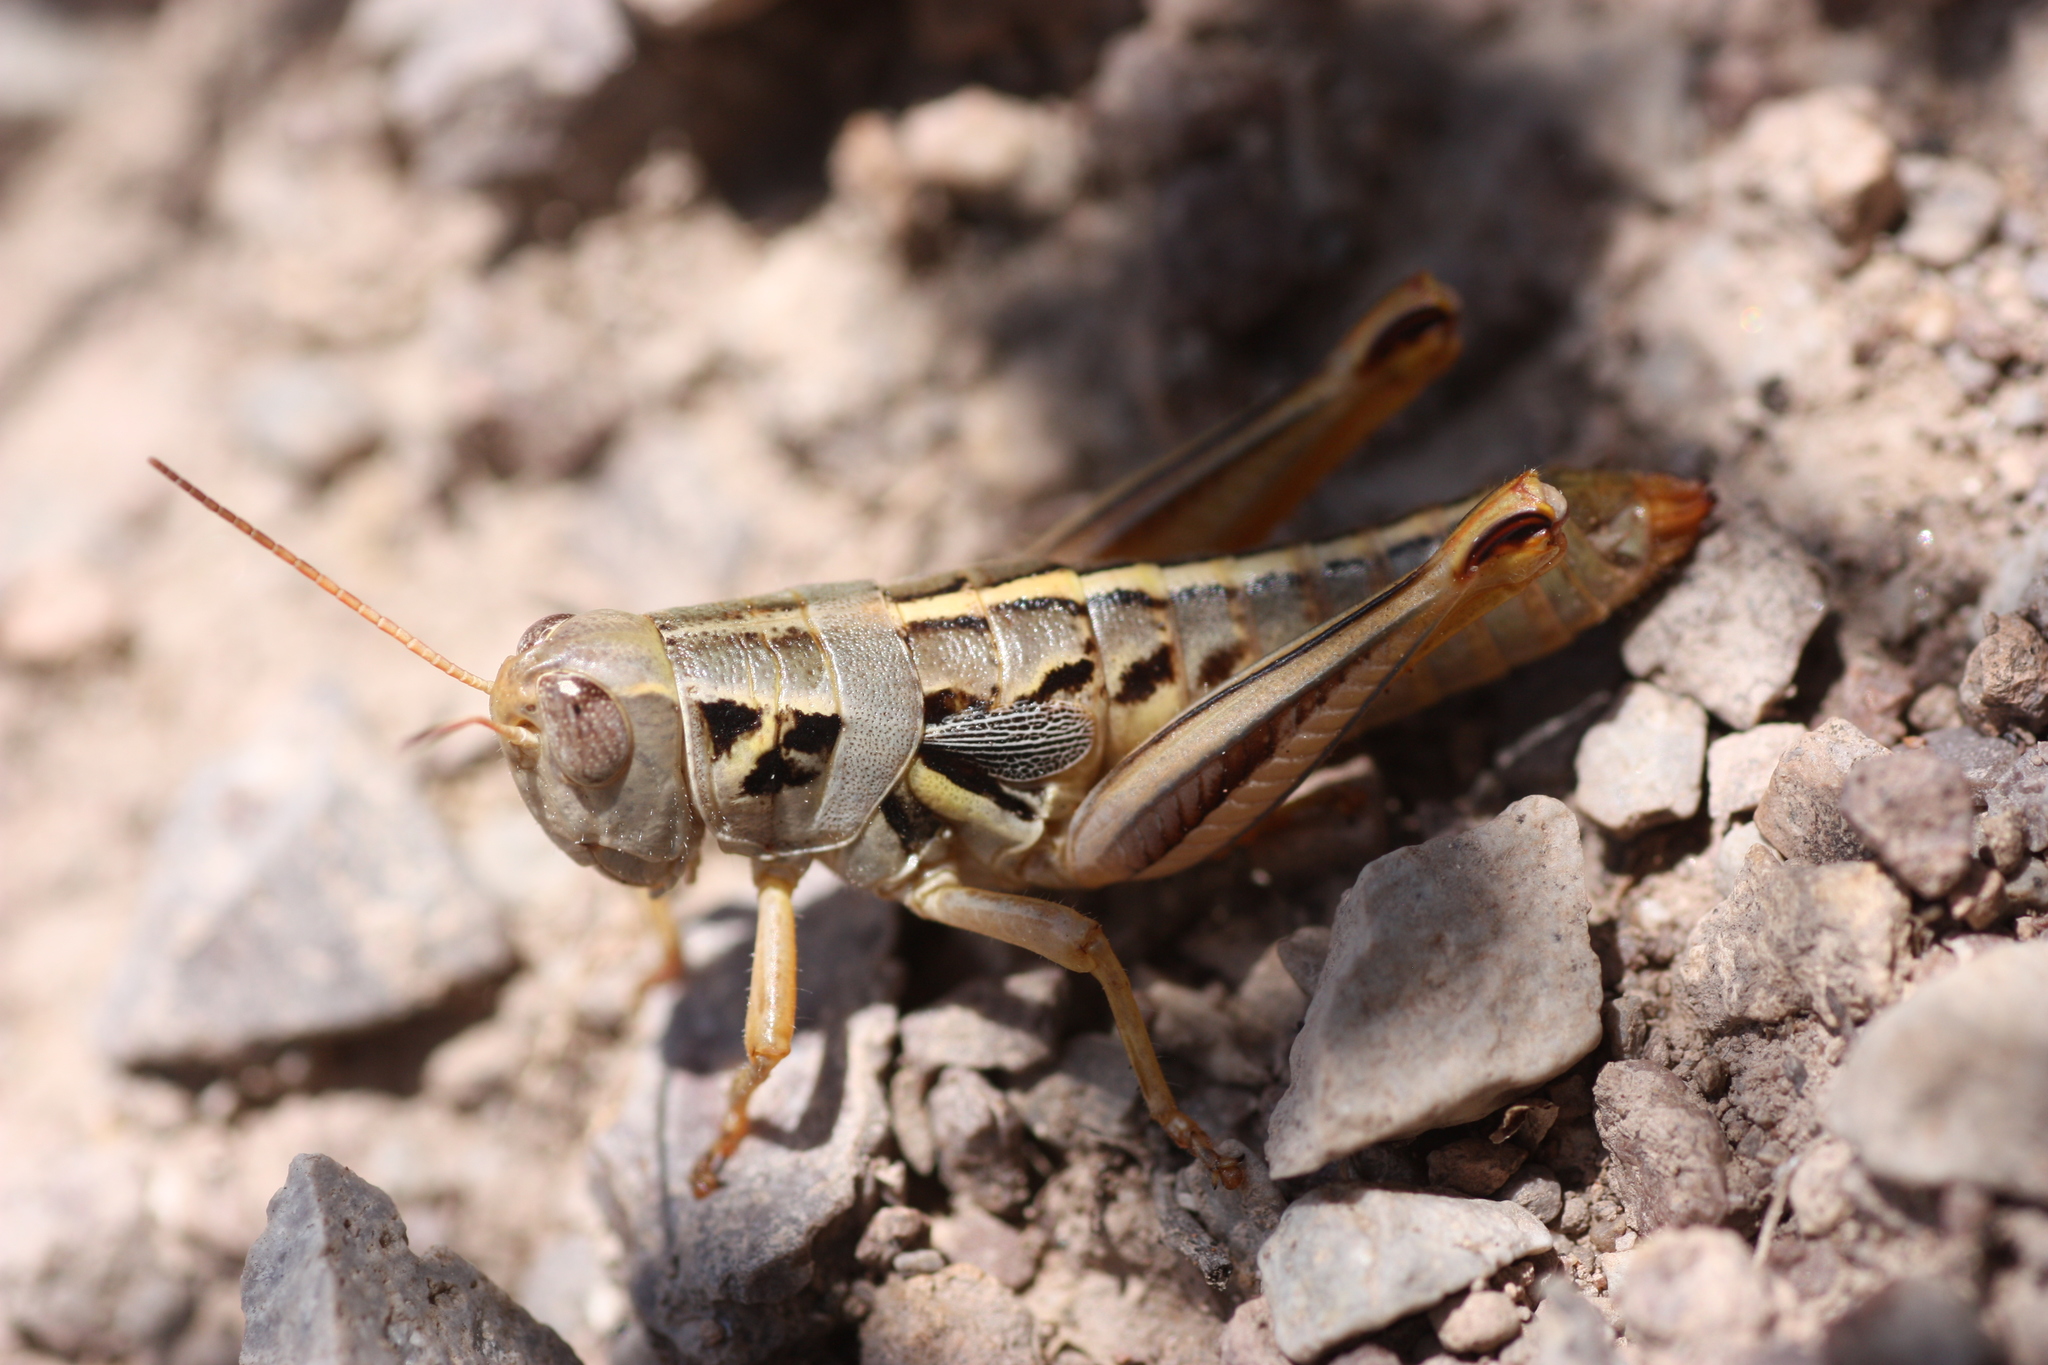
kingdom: Animalia
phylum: Arthropoda
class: Insecta
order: Orthoptera
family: Acrididae
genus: Barytettix
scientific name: Barytettix humphreysii
